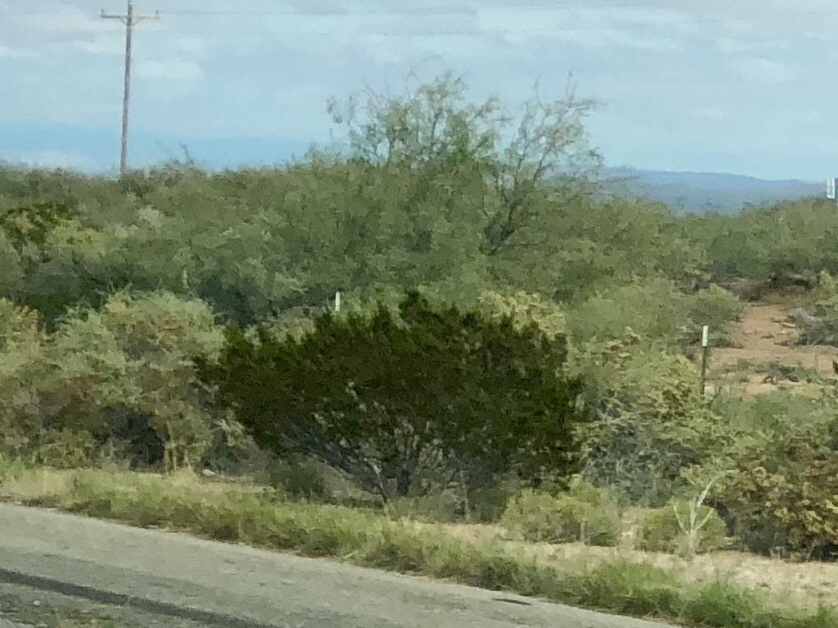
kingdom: Plantae
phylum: Tracheophyta
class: Magnoliopsida
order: Zygophyllales
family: Zygophyllaceae
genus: Larrea
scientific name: Larrea tridentata
